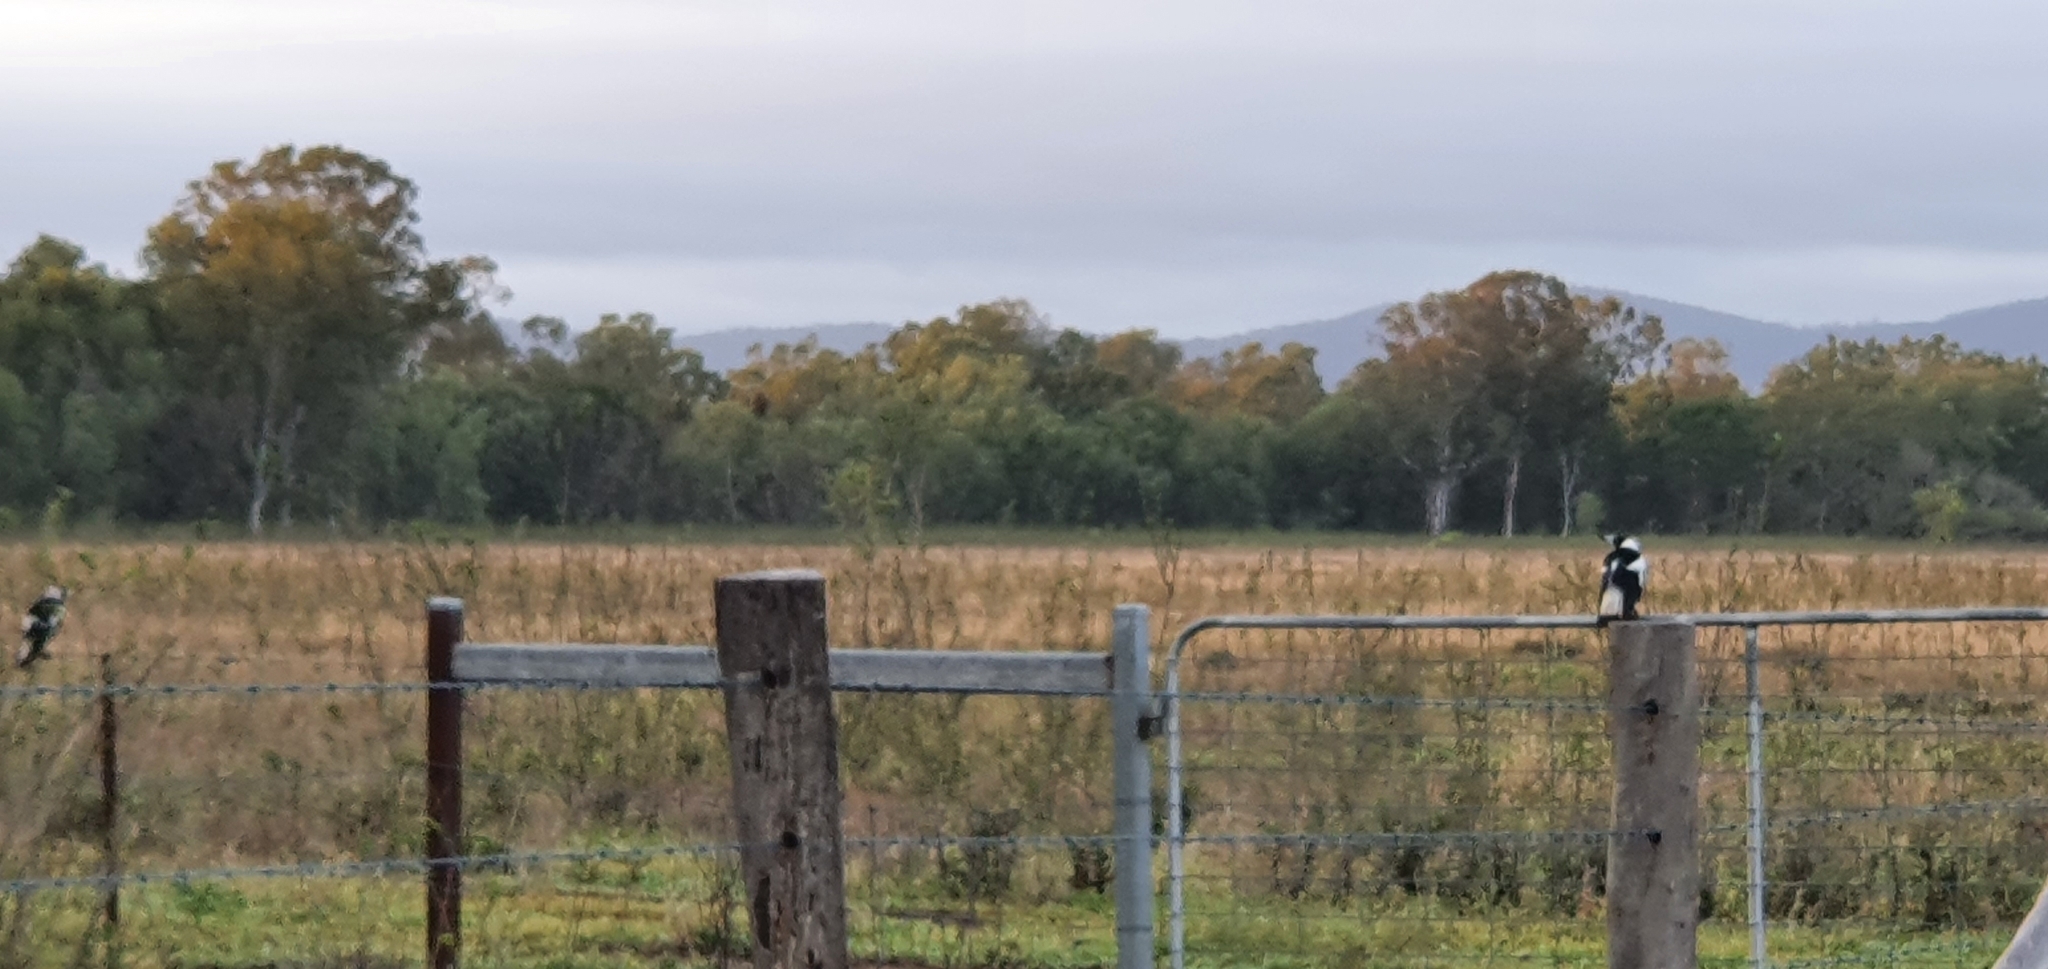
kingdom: Animalia
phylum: Chordata
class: Aves
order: Passeriformes
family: Cracticidae
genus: Gymnorhina
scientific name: Gymnorhina tibicen
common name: Australian magpie
